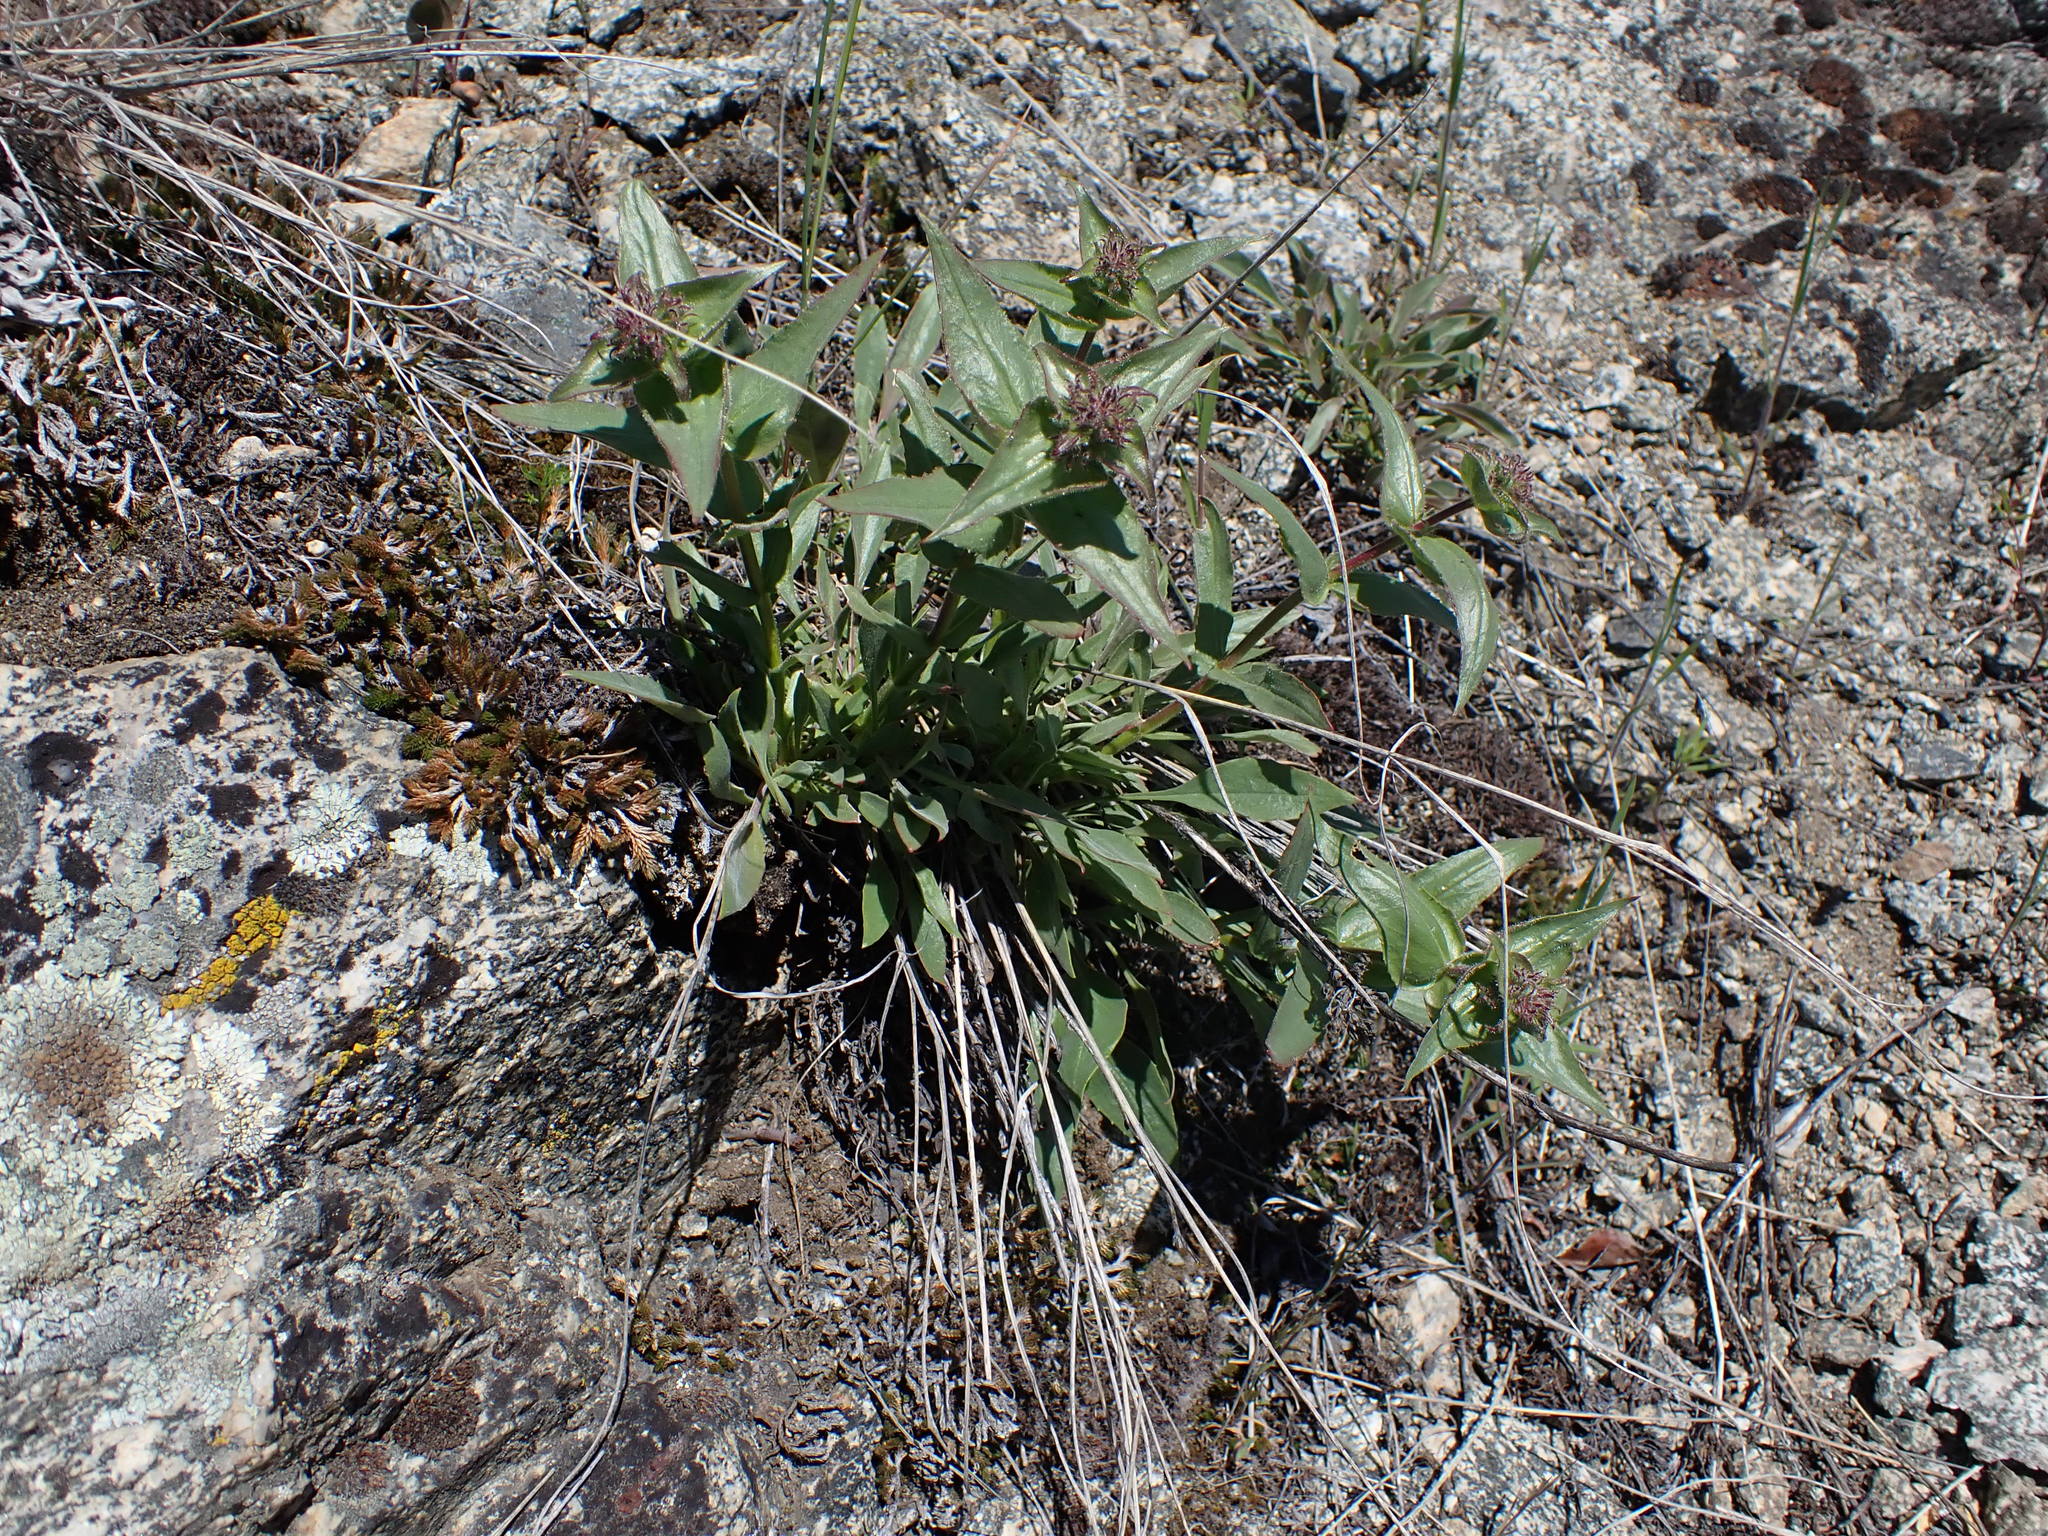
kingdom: Plantae
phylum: Tracheophyta
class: Magnoliopsida
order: Lamiales
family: Plantaginaceae
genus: Penstemon
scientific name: Penstemon pruinosus
